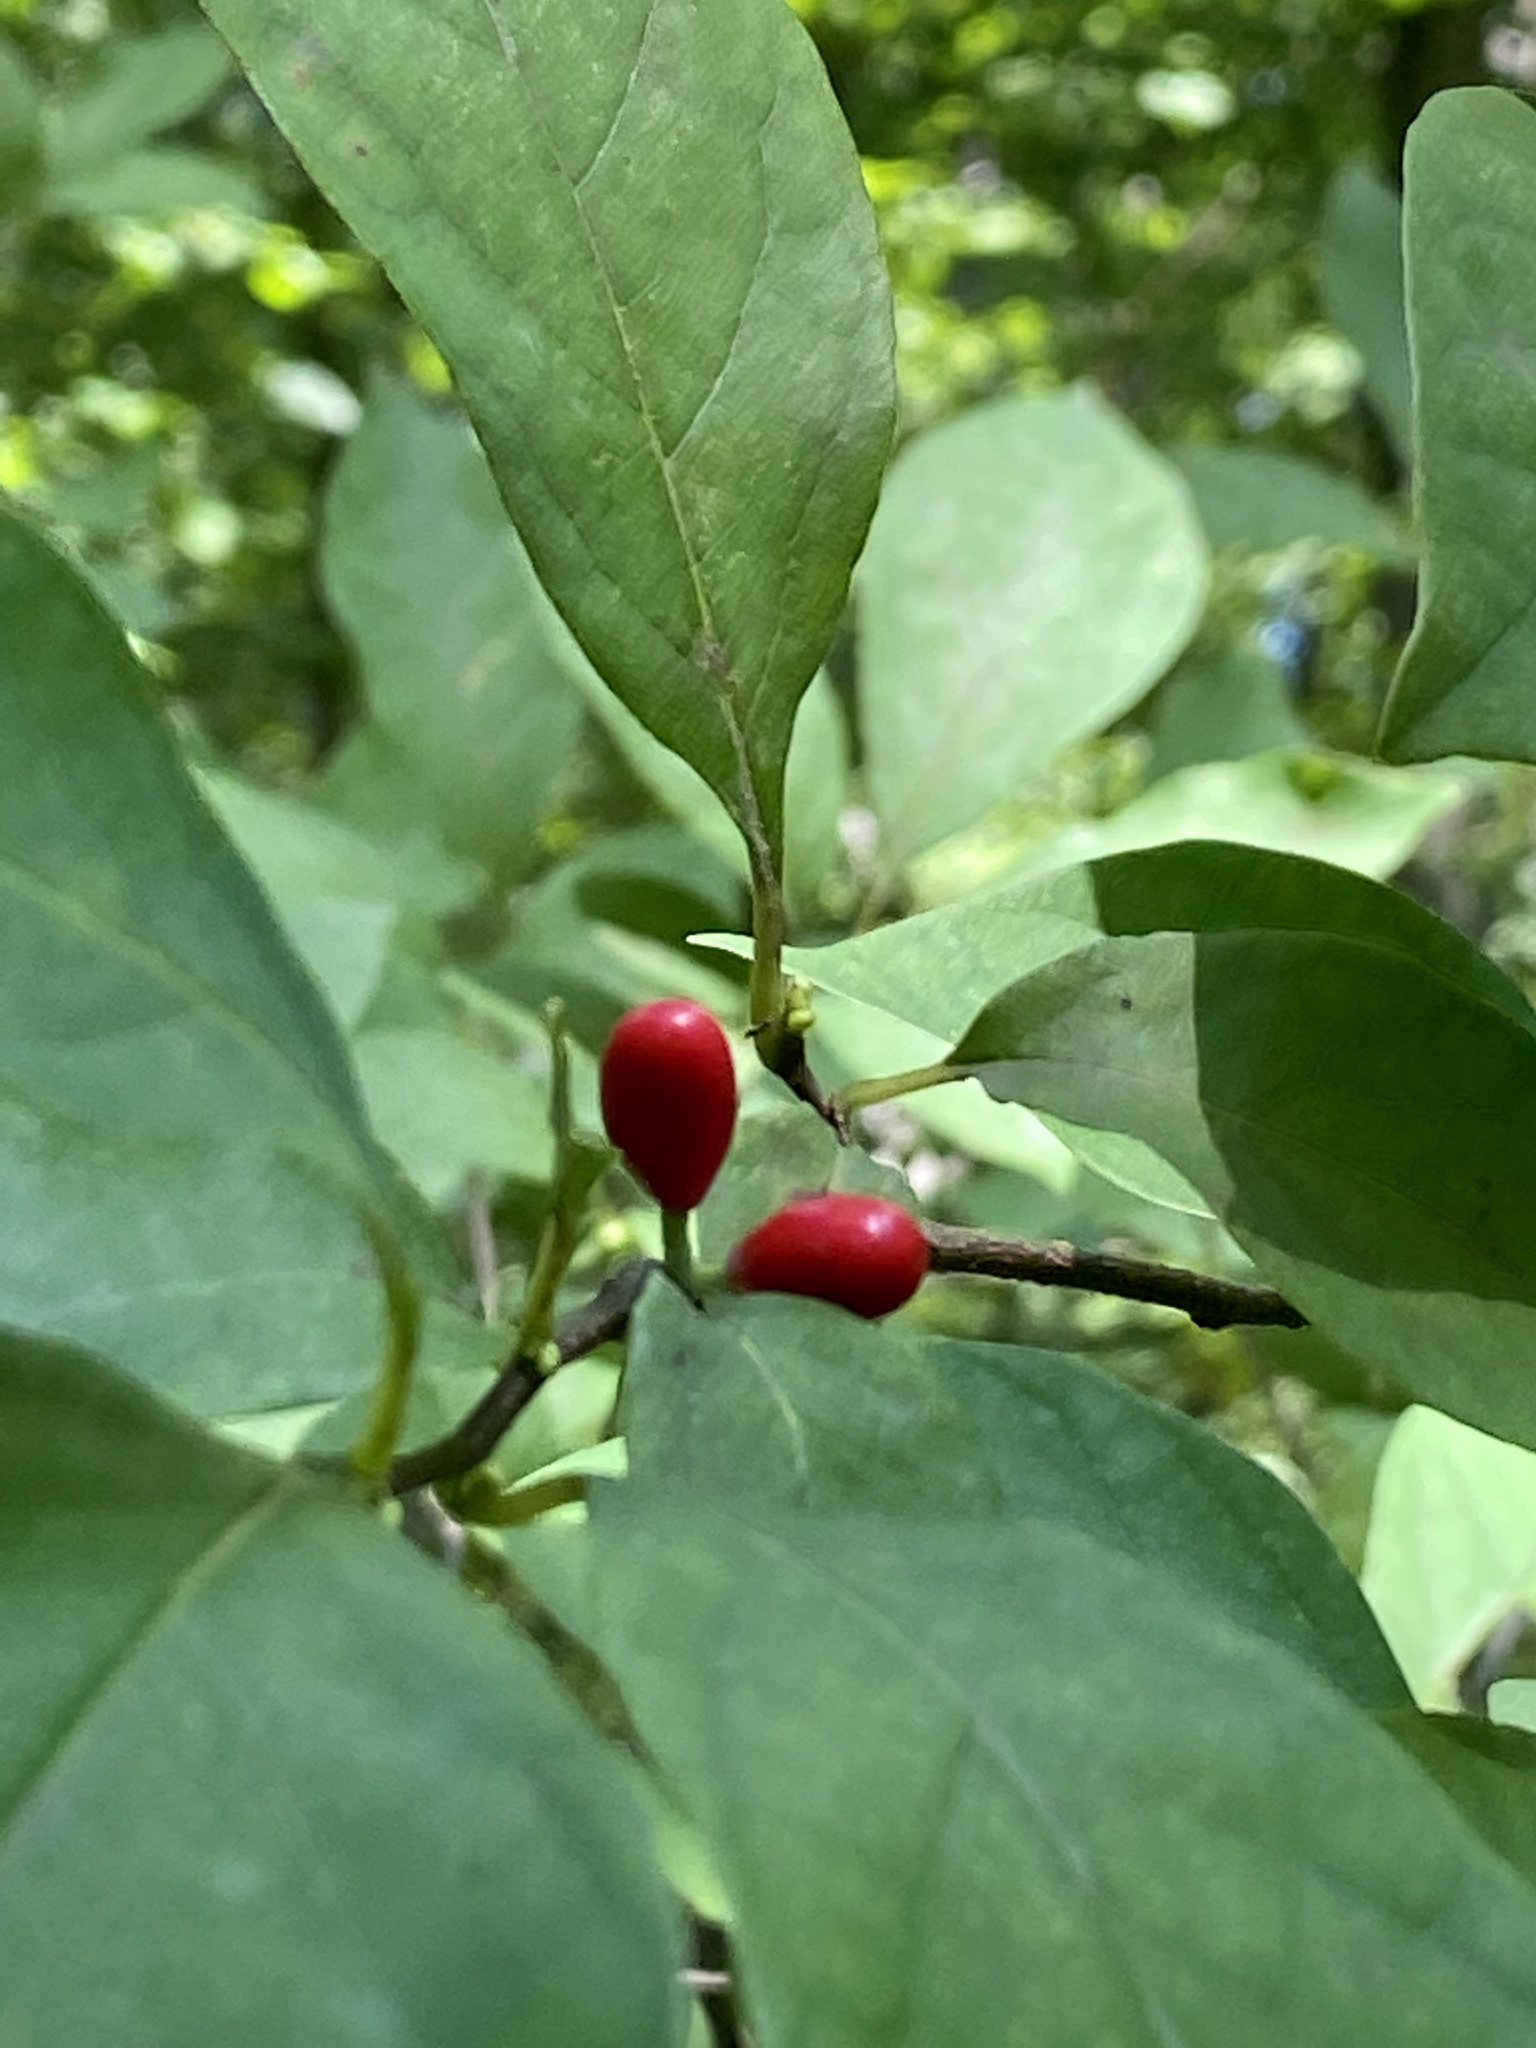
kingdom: Plantae
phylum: Tracheophyta
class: Magnoliopsida
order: Laurales
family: Lauraceae
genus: Lindera
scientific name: Lindera benzoin
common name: Spicebush
